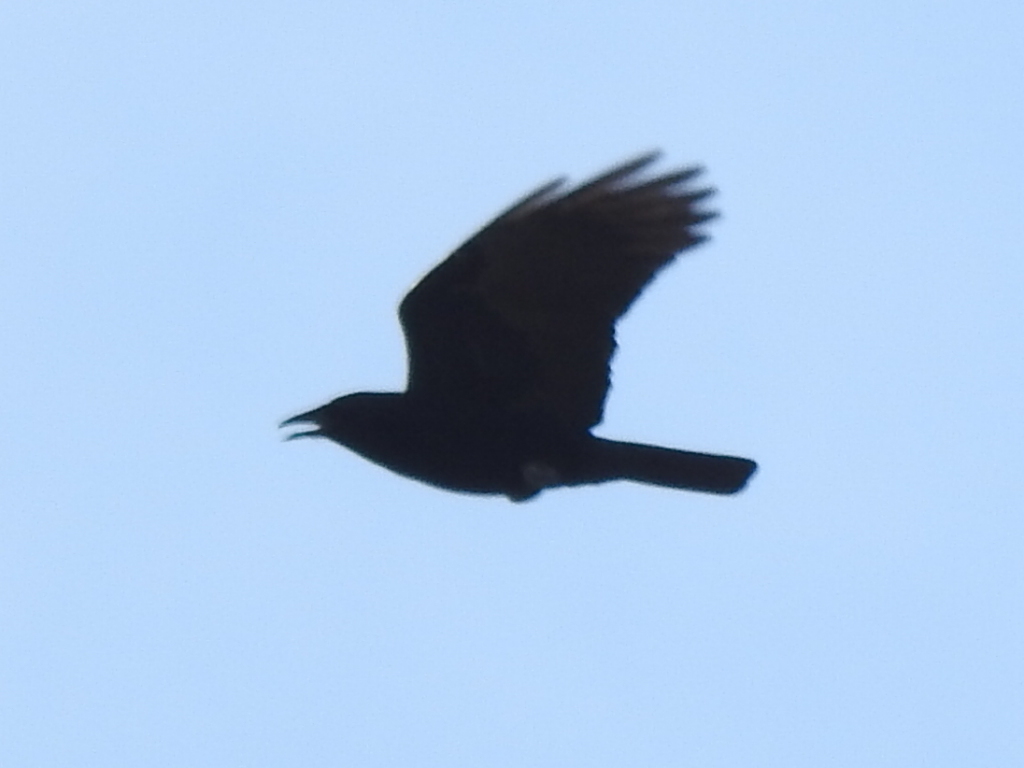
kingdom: Animalia
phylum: Chordata
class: Aves
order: Passeriformes
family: Corvidae
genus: Corvus
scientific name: Corvus brachyrhynchos
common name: American crow
